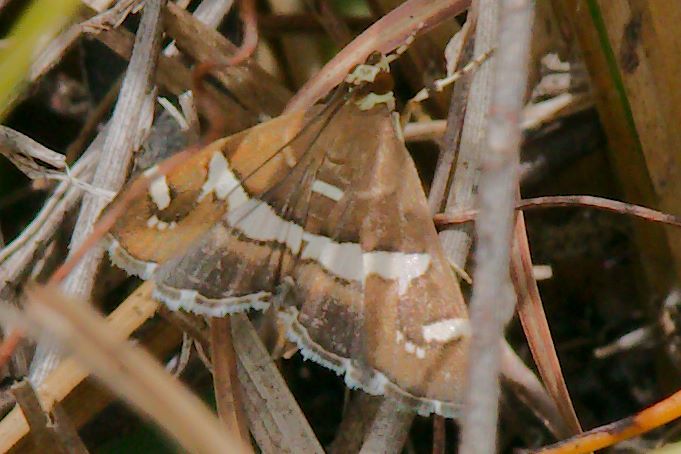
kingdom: Animalia
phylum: Arthropoda
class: Insecta
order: Lepidoptera
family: Crambidae
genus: Spoladea
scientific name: Spoladea recurvalis
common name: Beet webworm moth
